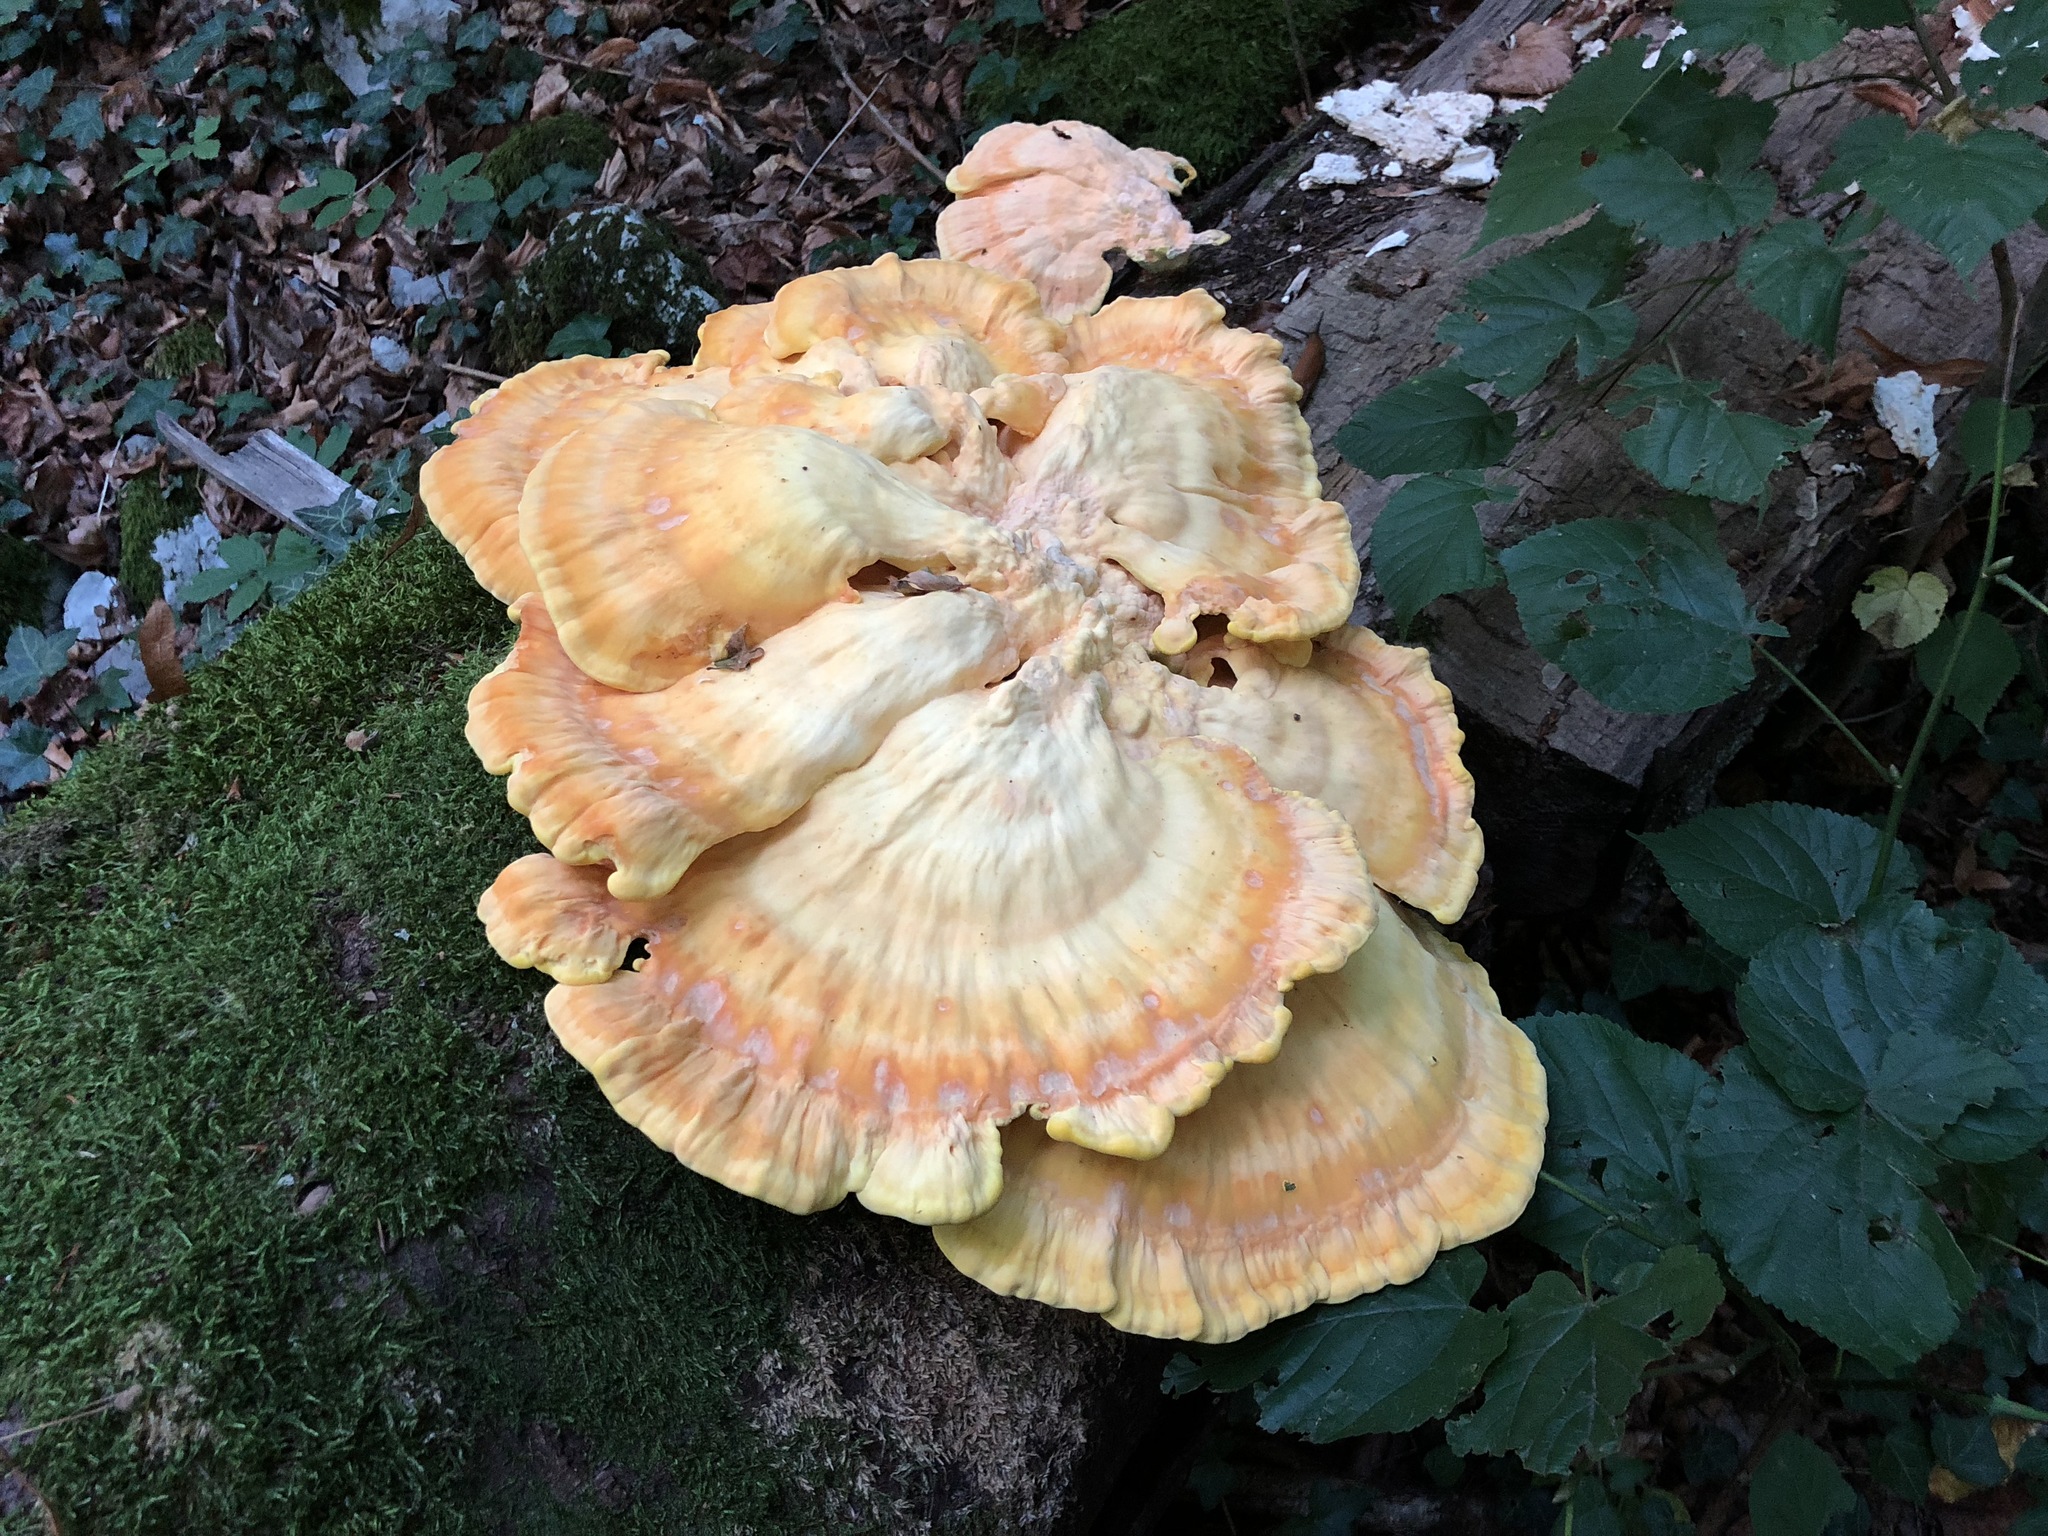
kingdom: Fungi
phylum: Basidiomycota
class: Agaricomycetes
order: Polyporales
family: Laetiporaceae
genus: Laetiporus
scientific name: Laetiporus sulphureus
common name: Chicken of the woods
